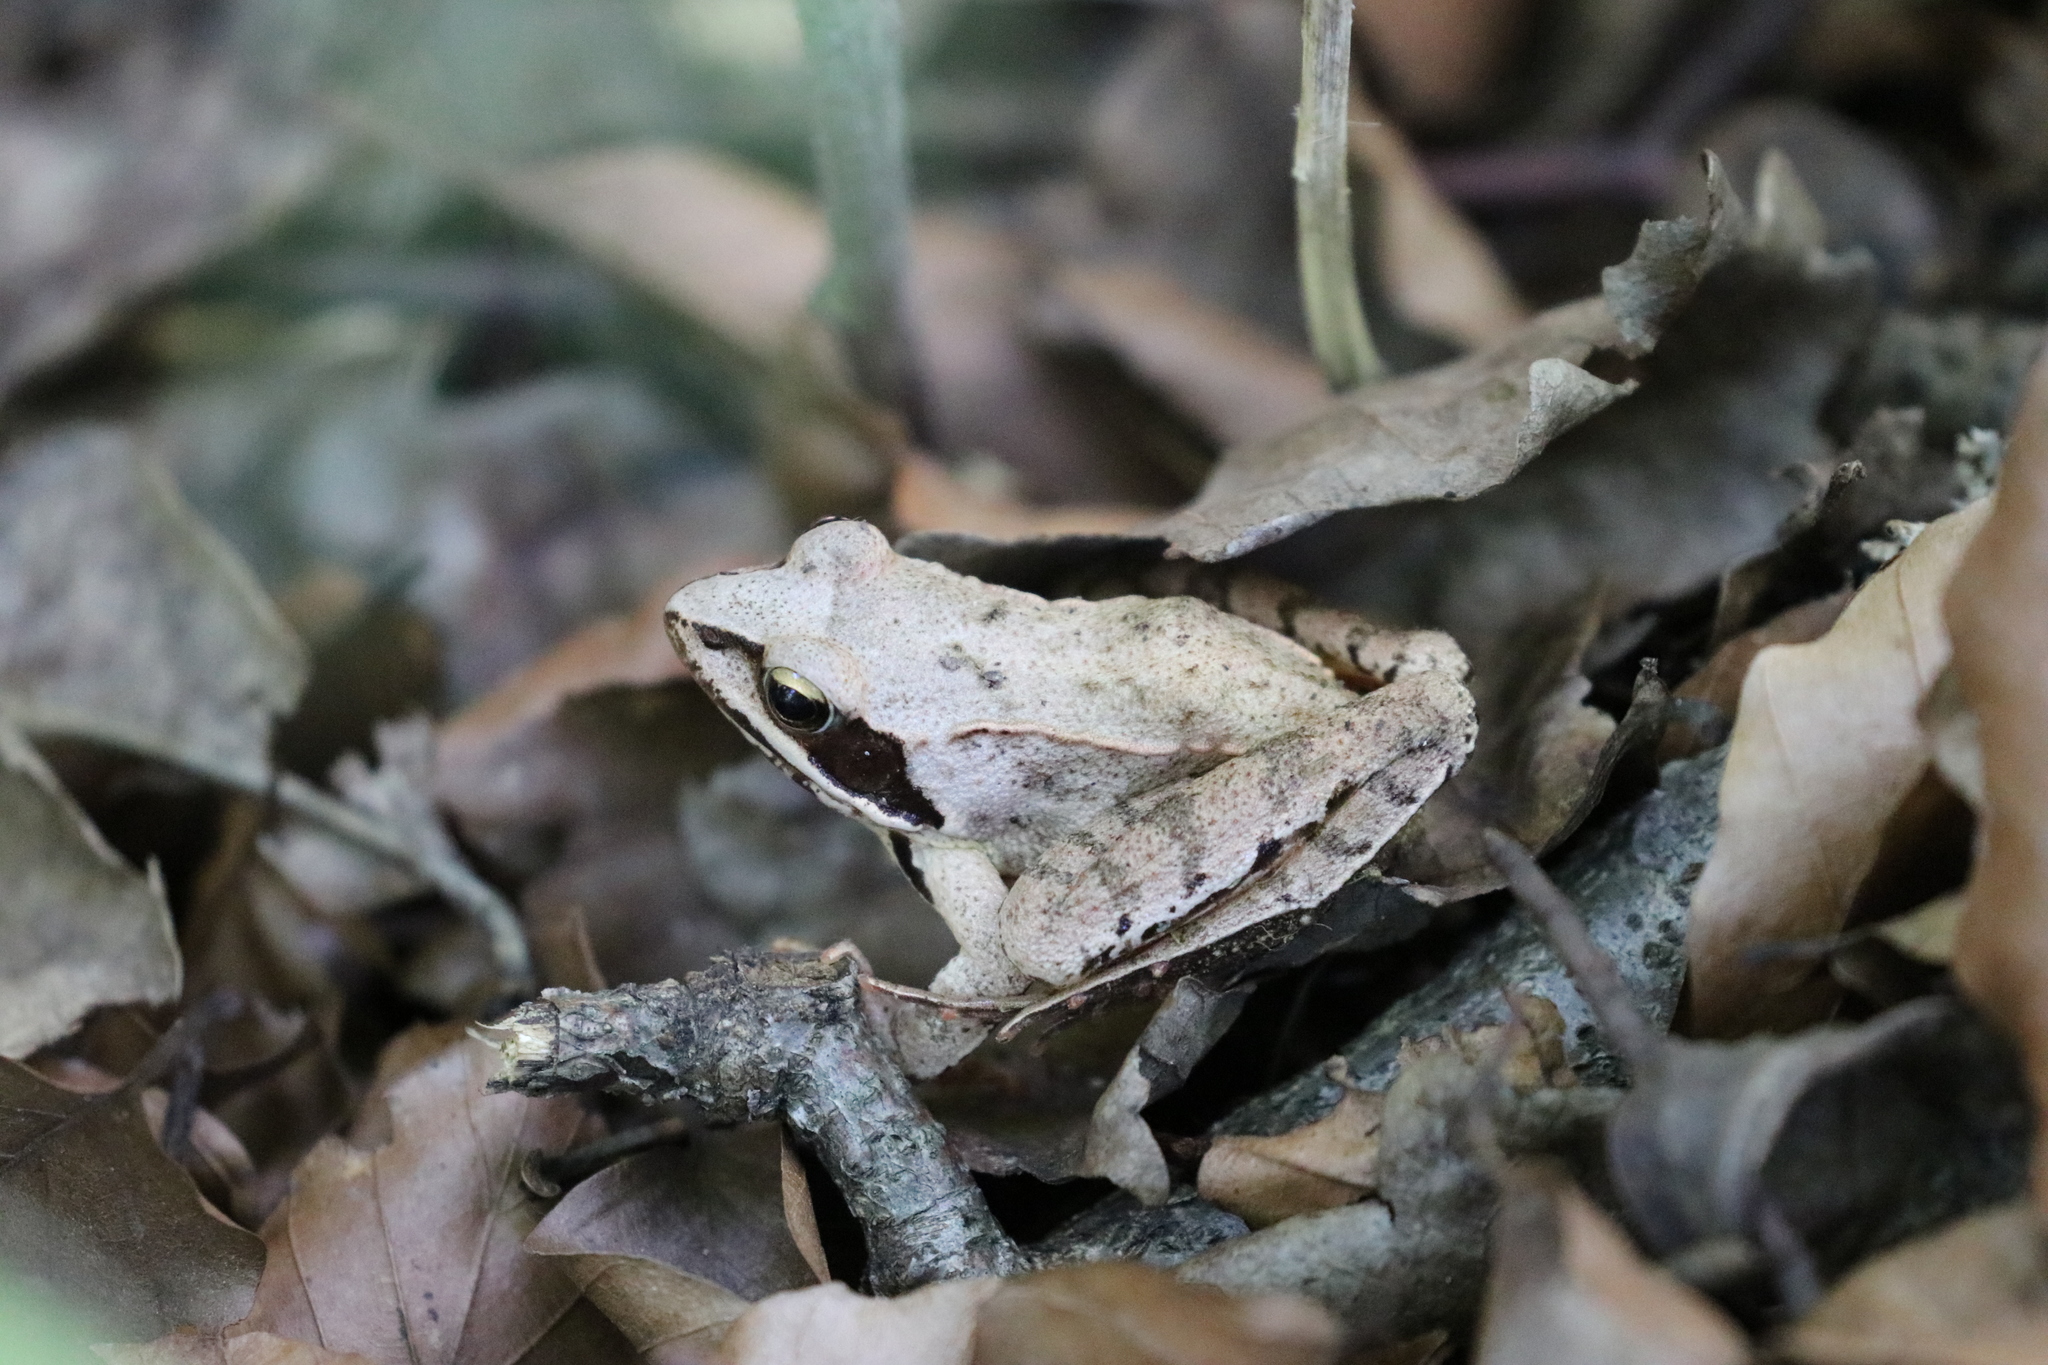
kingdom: Animalia
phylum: Chordata
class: Amphibia
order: Anura
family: Ranidae
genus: Rana
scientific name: Rana dalmatina
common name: Agile frog
